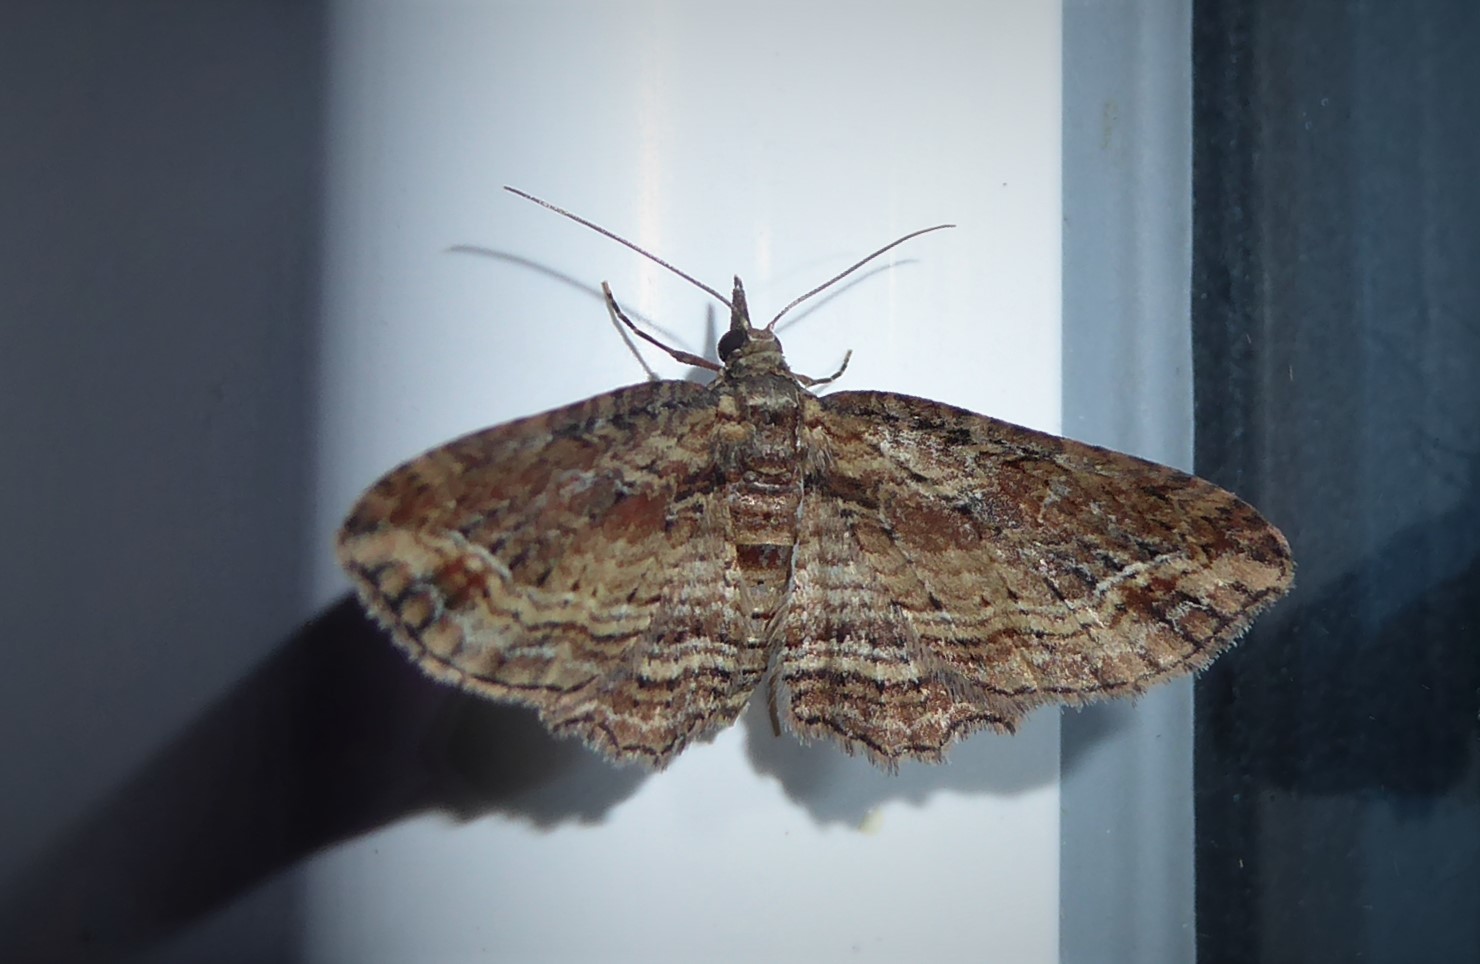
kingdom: Animalia
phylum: Arthropoda
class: Insecta
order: Lepidoptera
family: Geometridae
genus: Chloroclystis
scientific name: Chloroclystis filata
